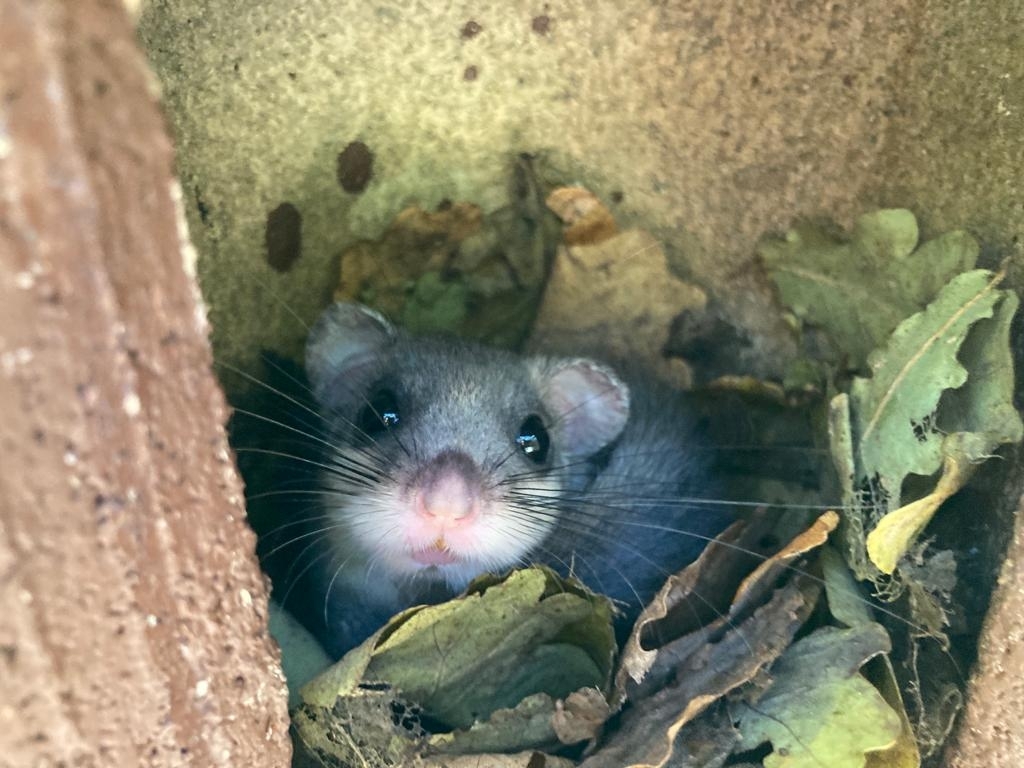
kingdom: Animalia
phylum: Chordata
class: Mammalia
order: Rodentia
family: Gliridae
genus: Glis
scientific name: Glis glis
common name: Fat dormouse
